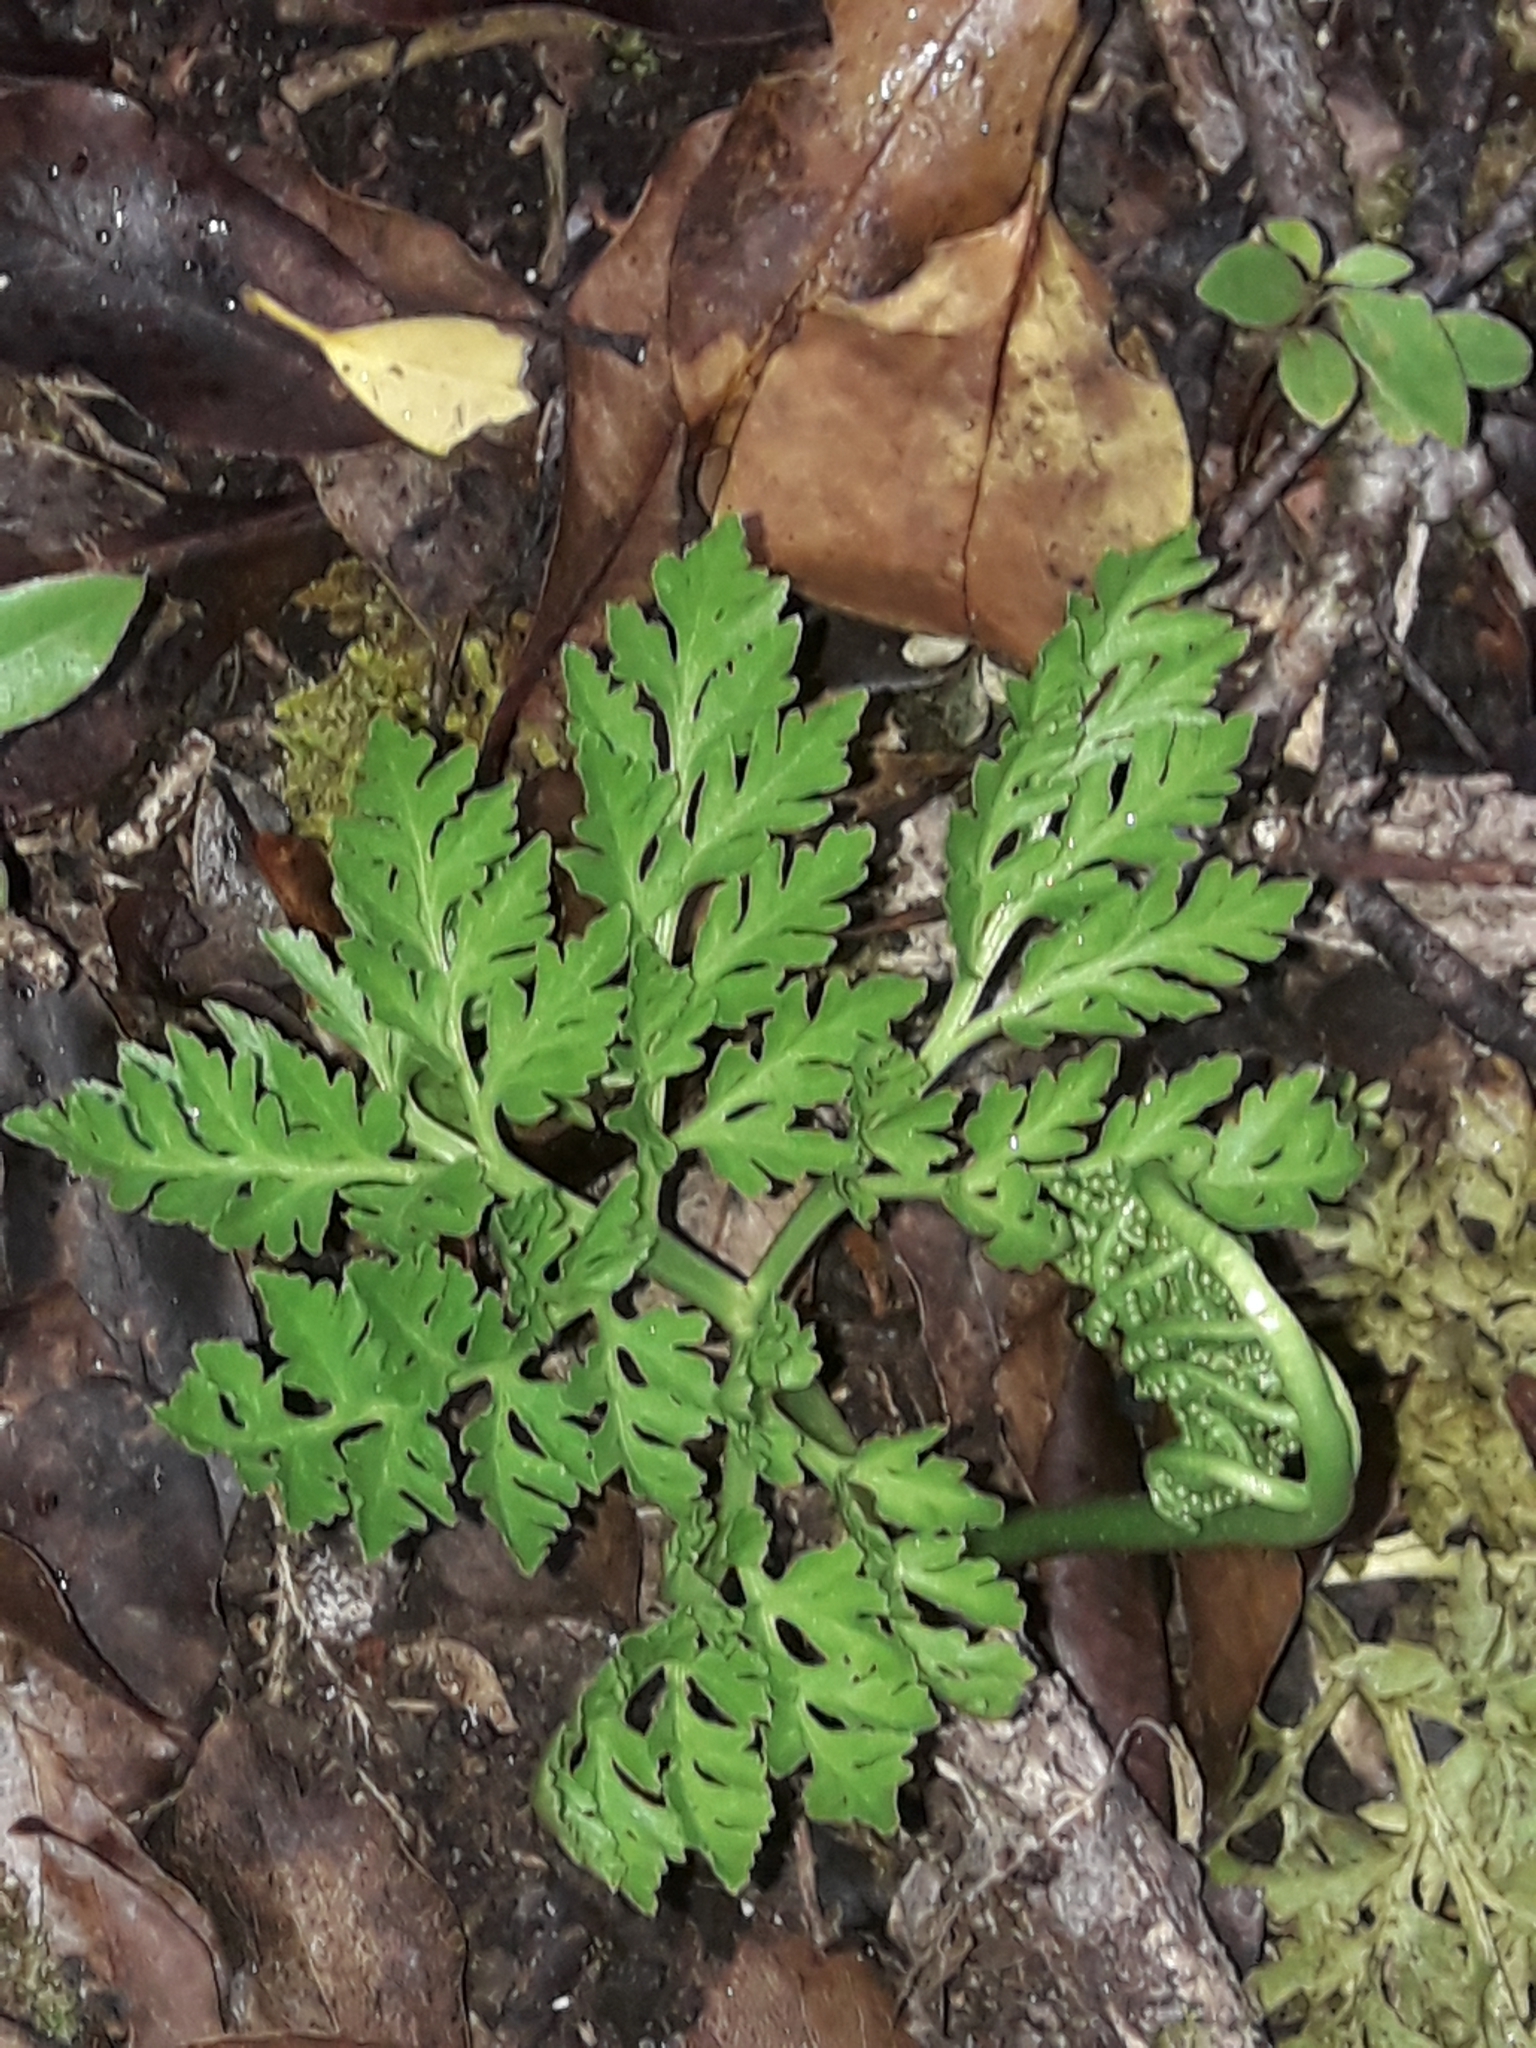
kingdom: Plantae
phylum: Tracheophyta
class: Polypodiopsida
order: Ophioglossales
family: Ophioglossaceae
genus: Sceptridium
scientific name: Sceptridium australe
